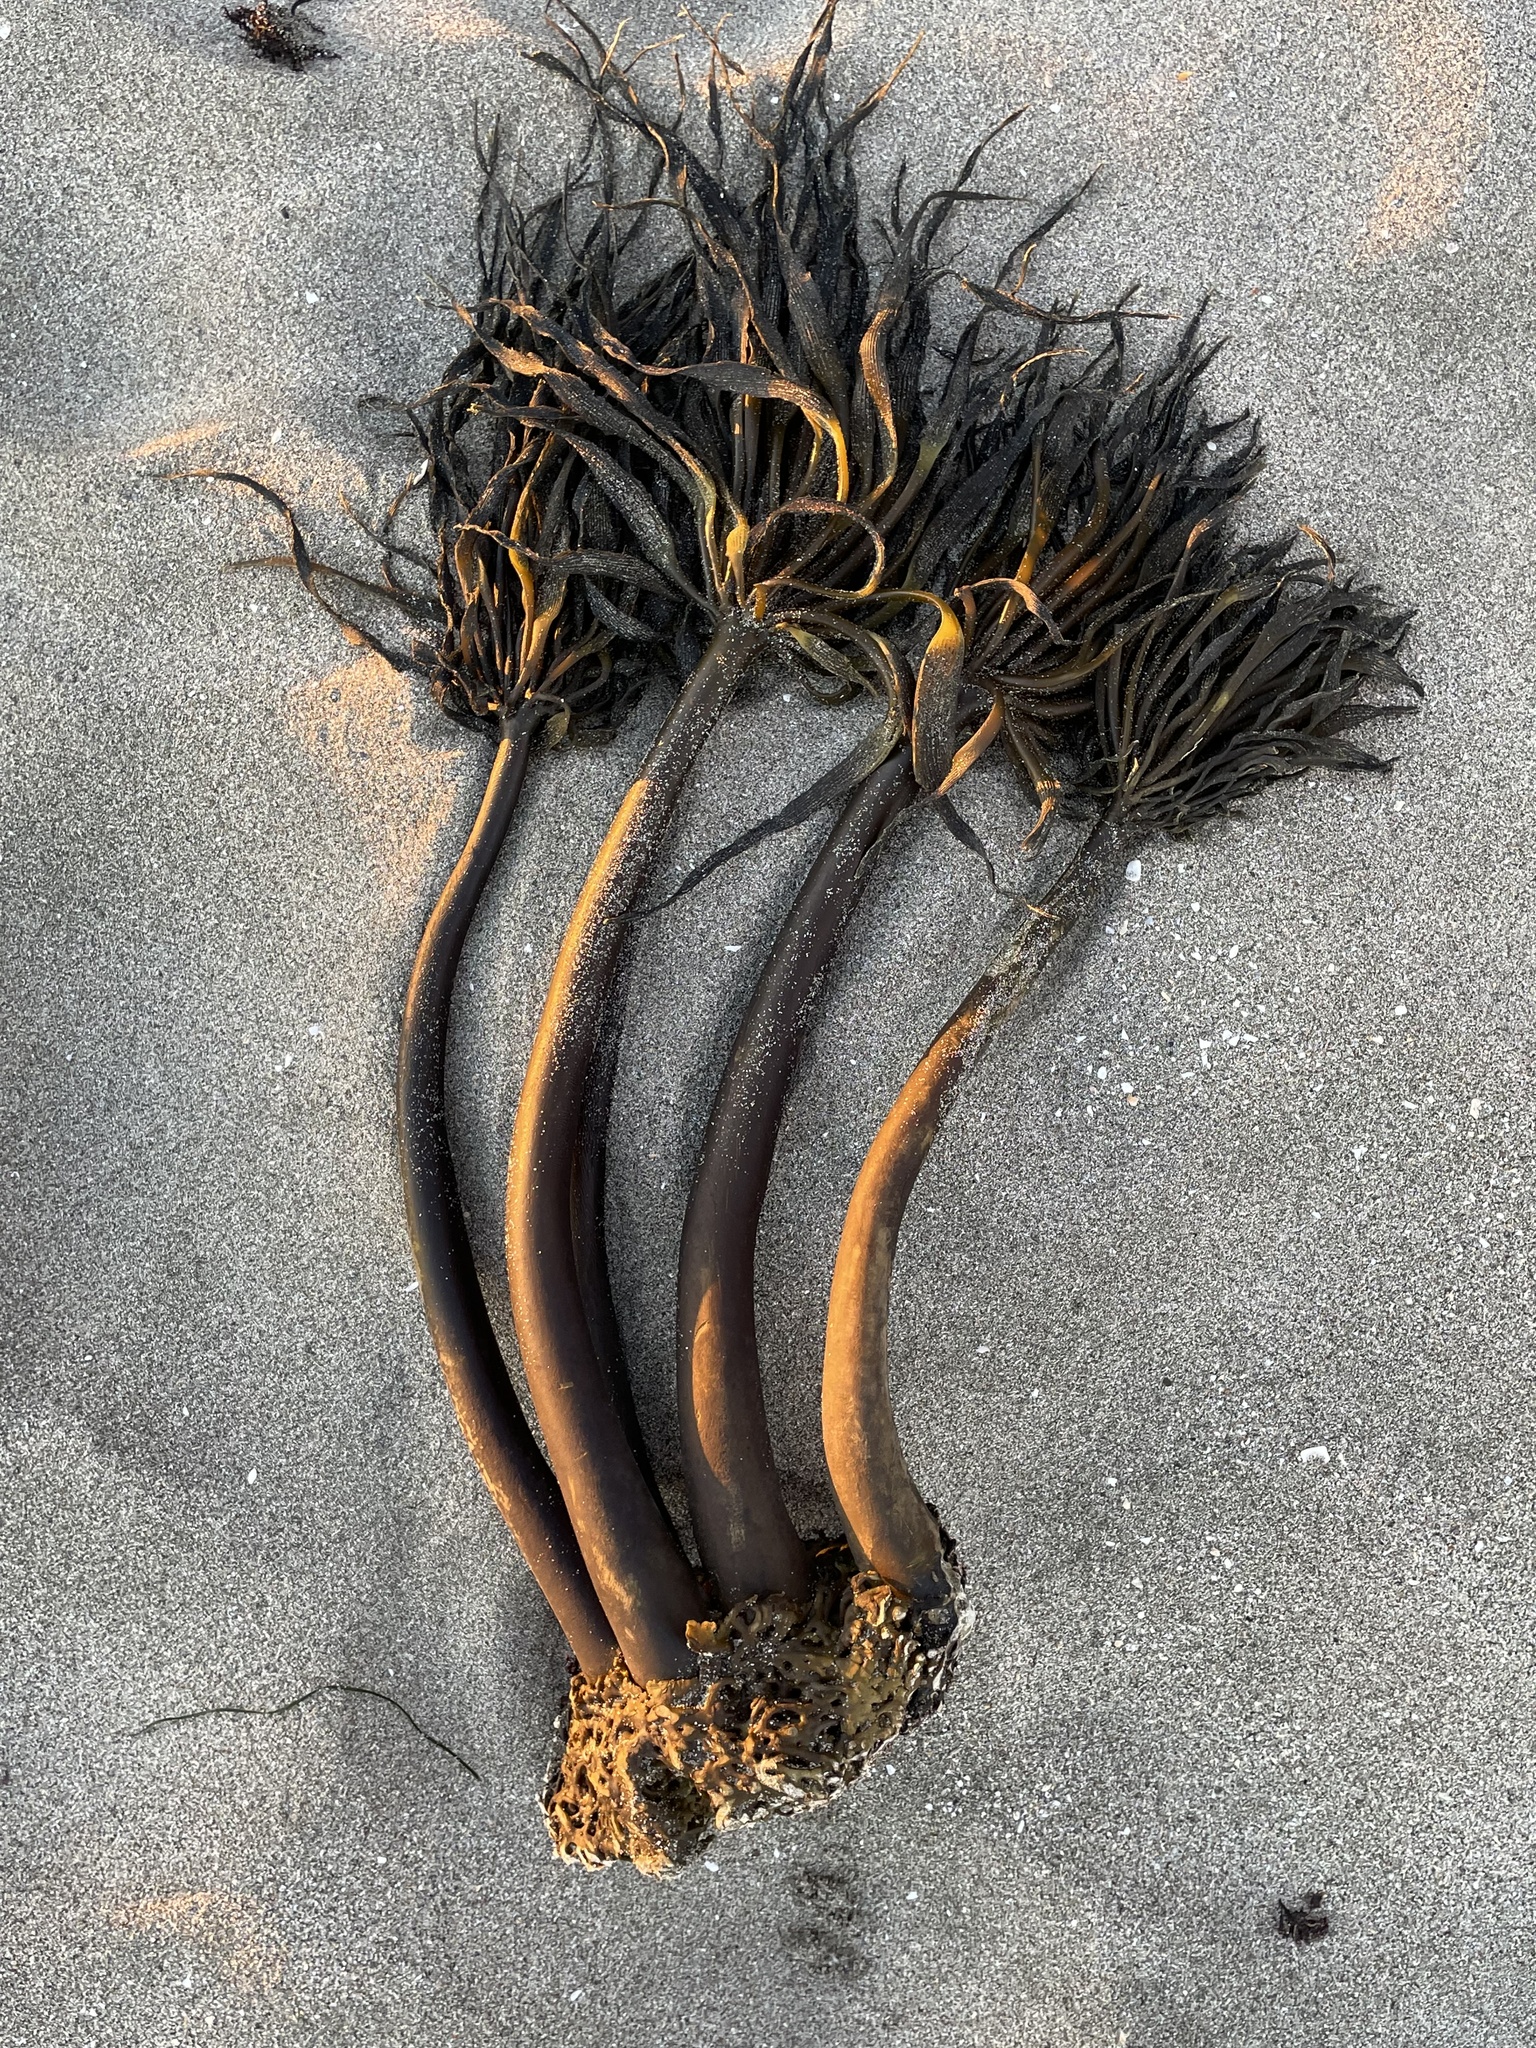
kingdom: Chromista
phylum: Ochrophyta
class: Phaeophyceae
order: Laminariales
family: Laminariaceae
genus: Postelsia
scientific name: Postelsia palmiformis
